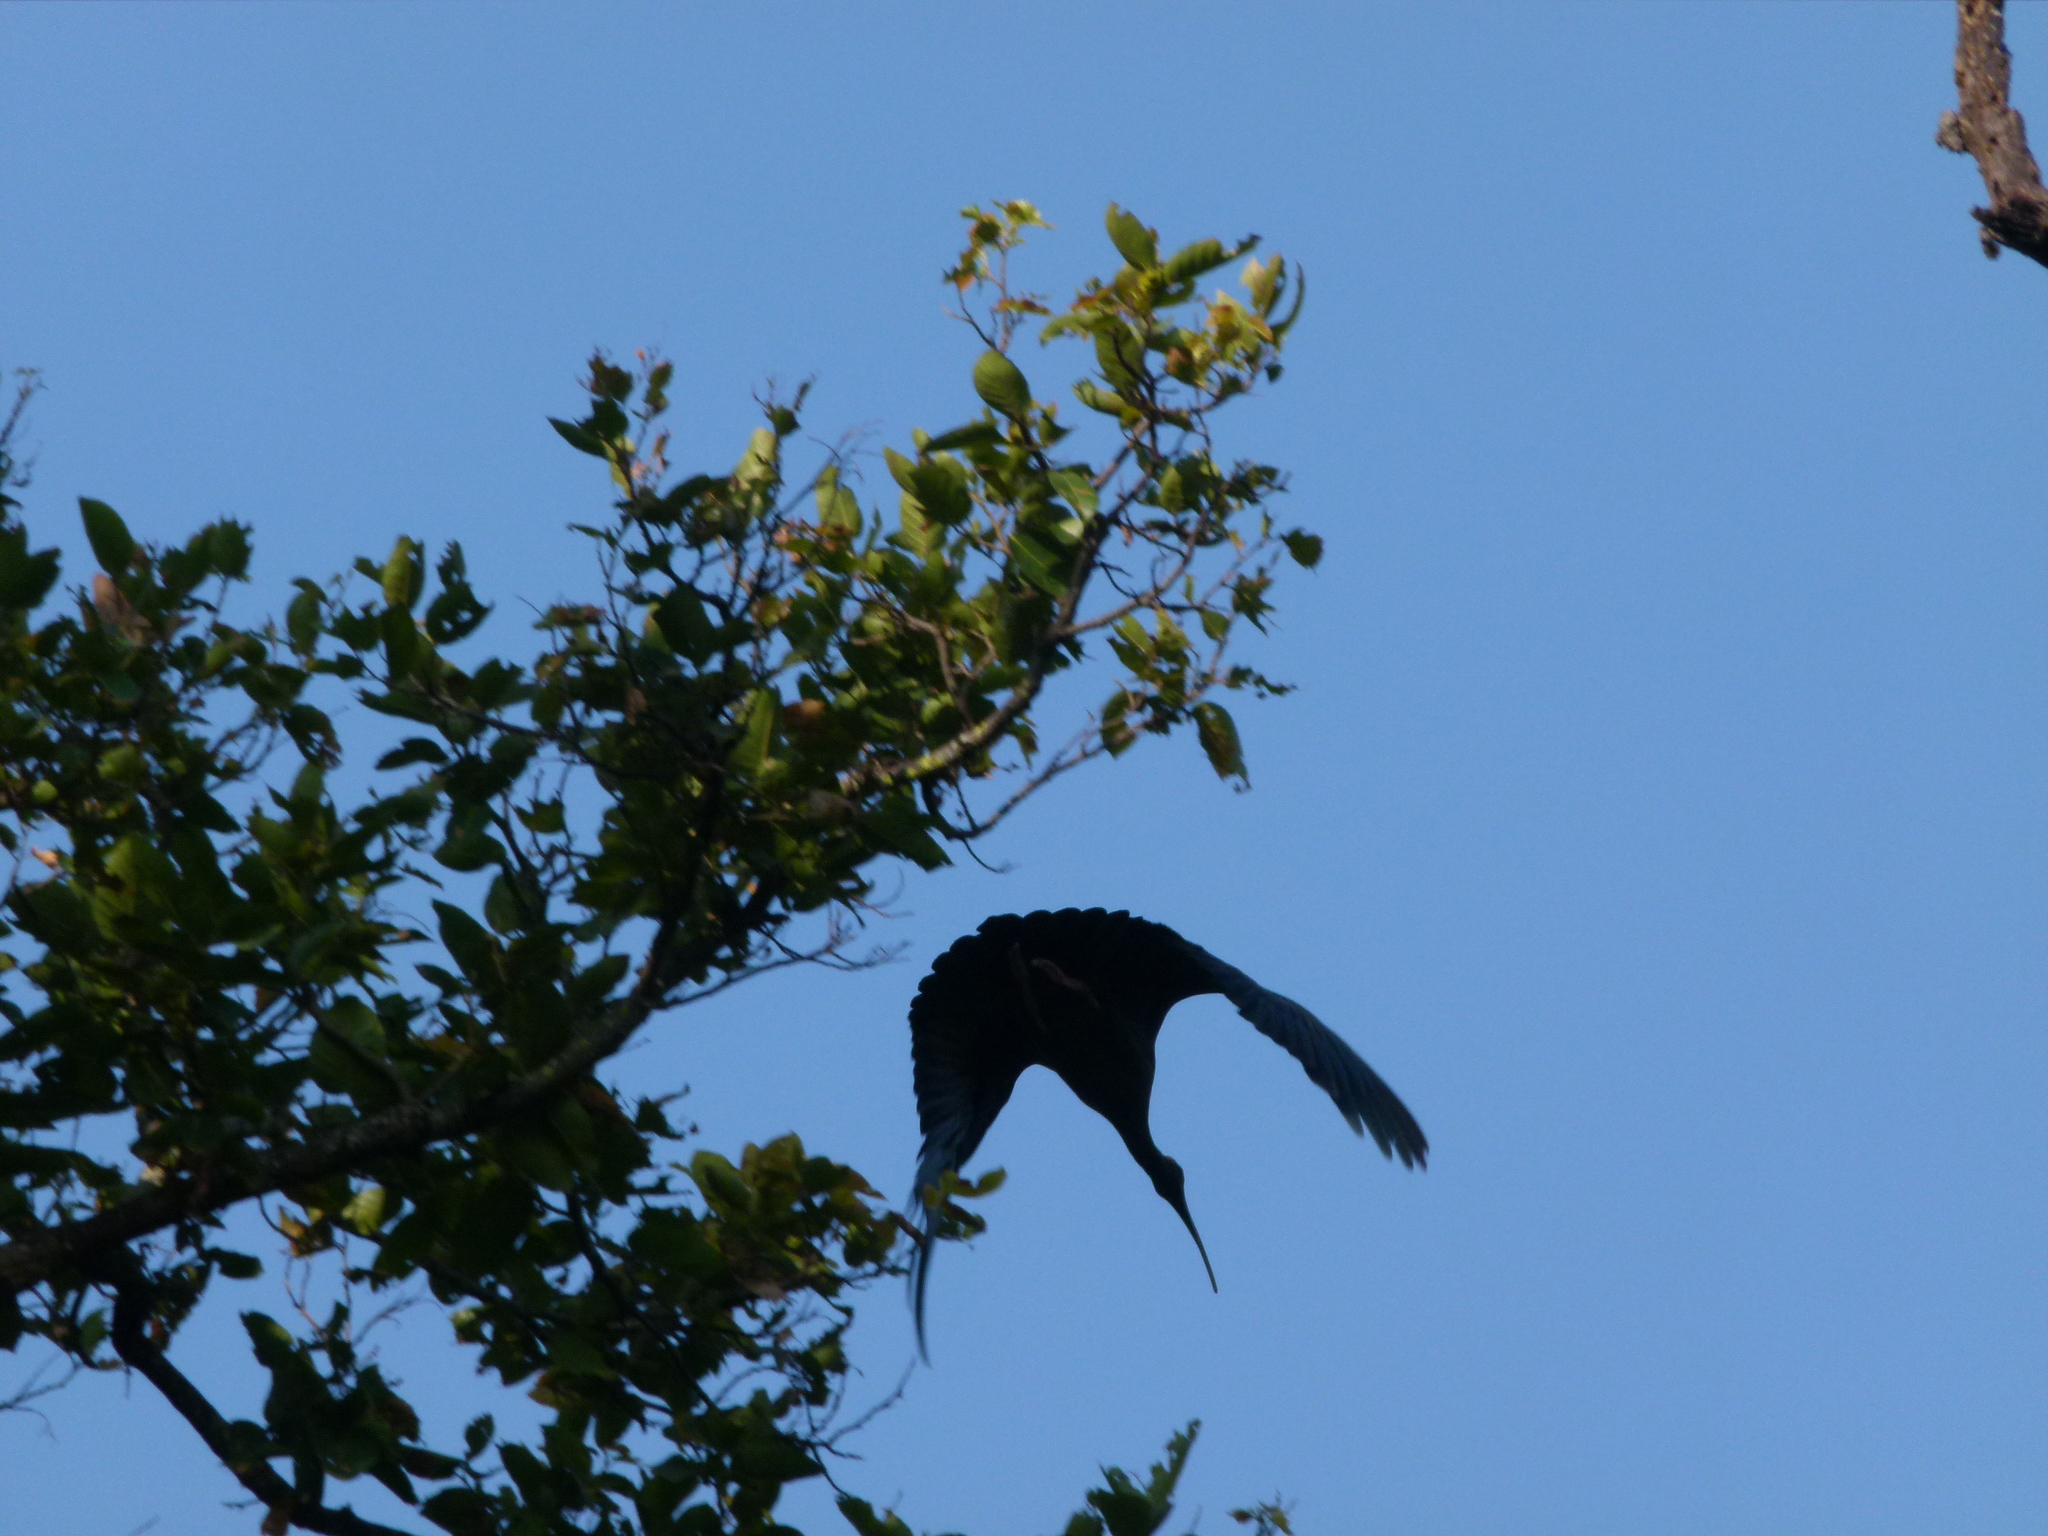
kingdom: Animalia
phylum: Chordata
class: Aves
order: Pelecaniformes
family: Threskiornithidae
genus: Pseudibis
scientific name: Pseudibis papillosa
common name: Red-naped ibis
